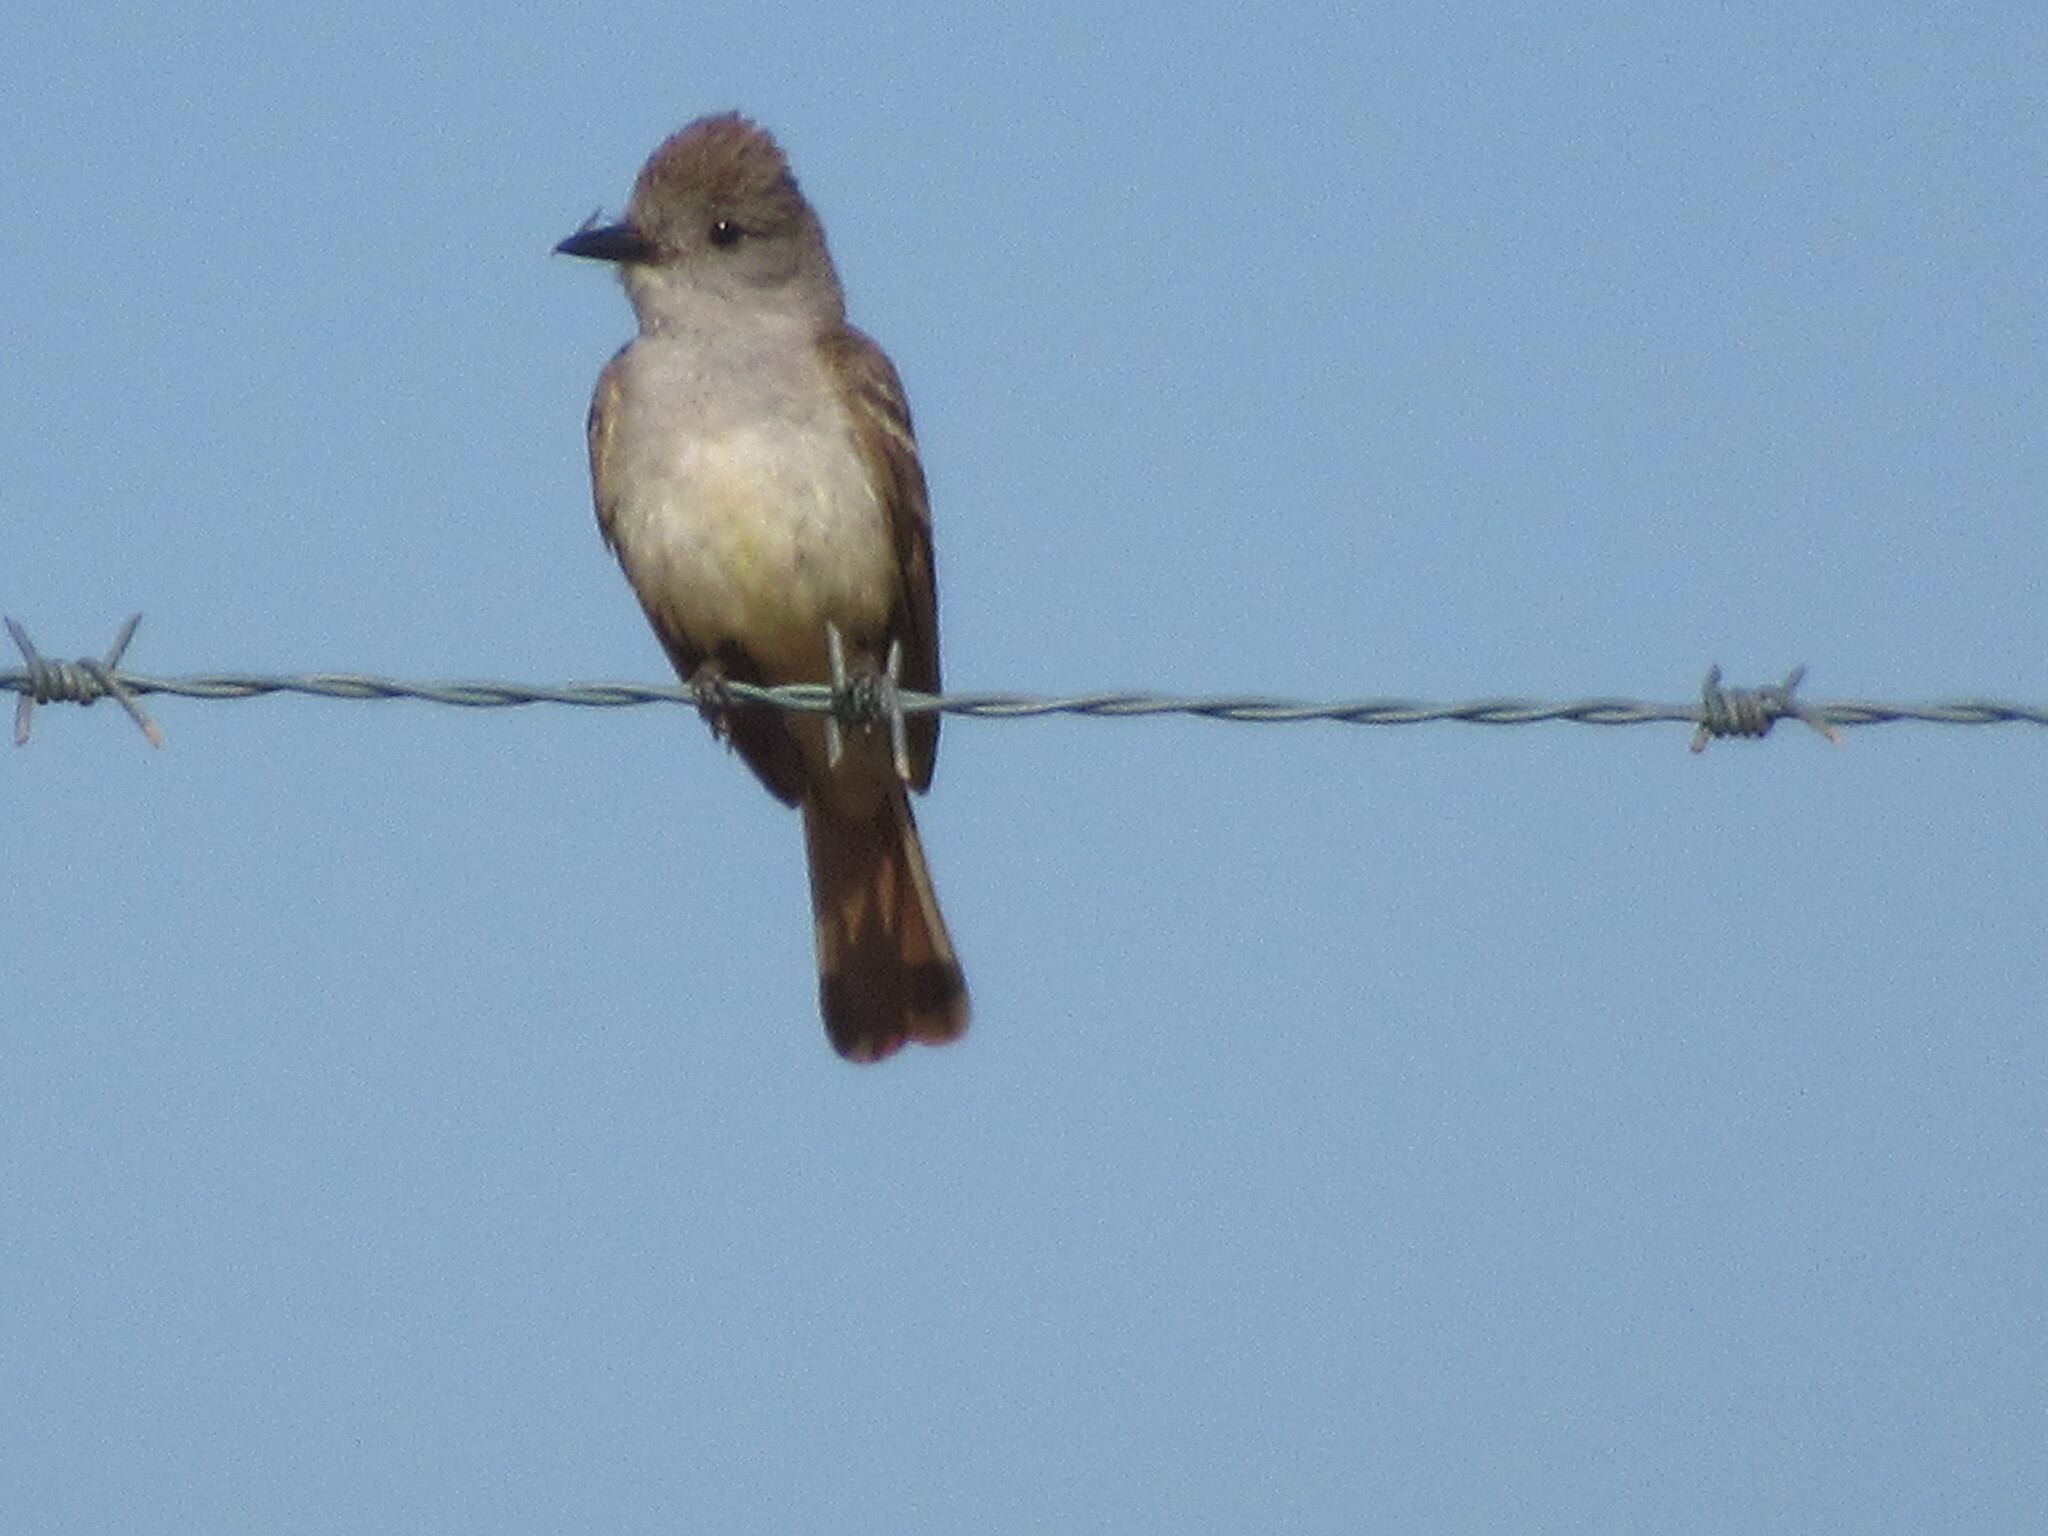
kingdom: Animalia
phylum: Chordata
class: Aves
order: Passeriformes
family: Tyrannidae
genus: Myiarchus
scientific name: Myiarchus cinerascens
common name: Ash-throated flycatcher
